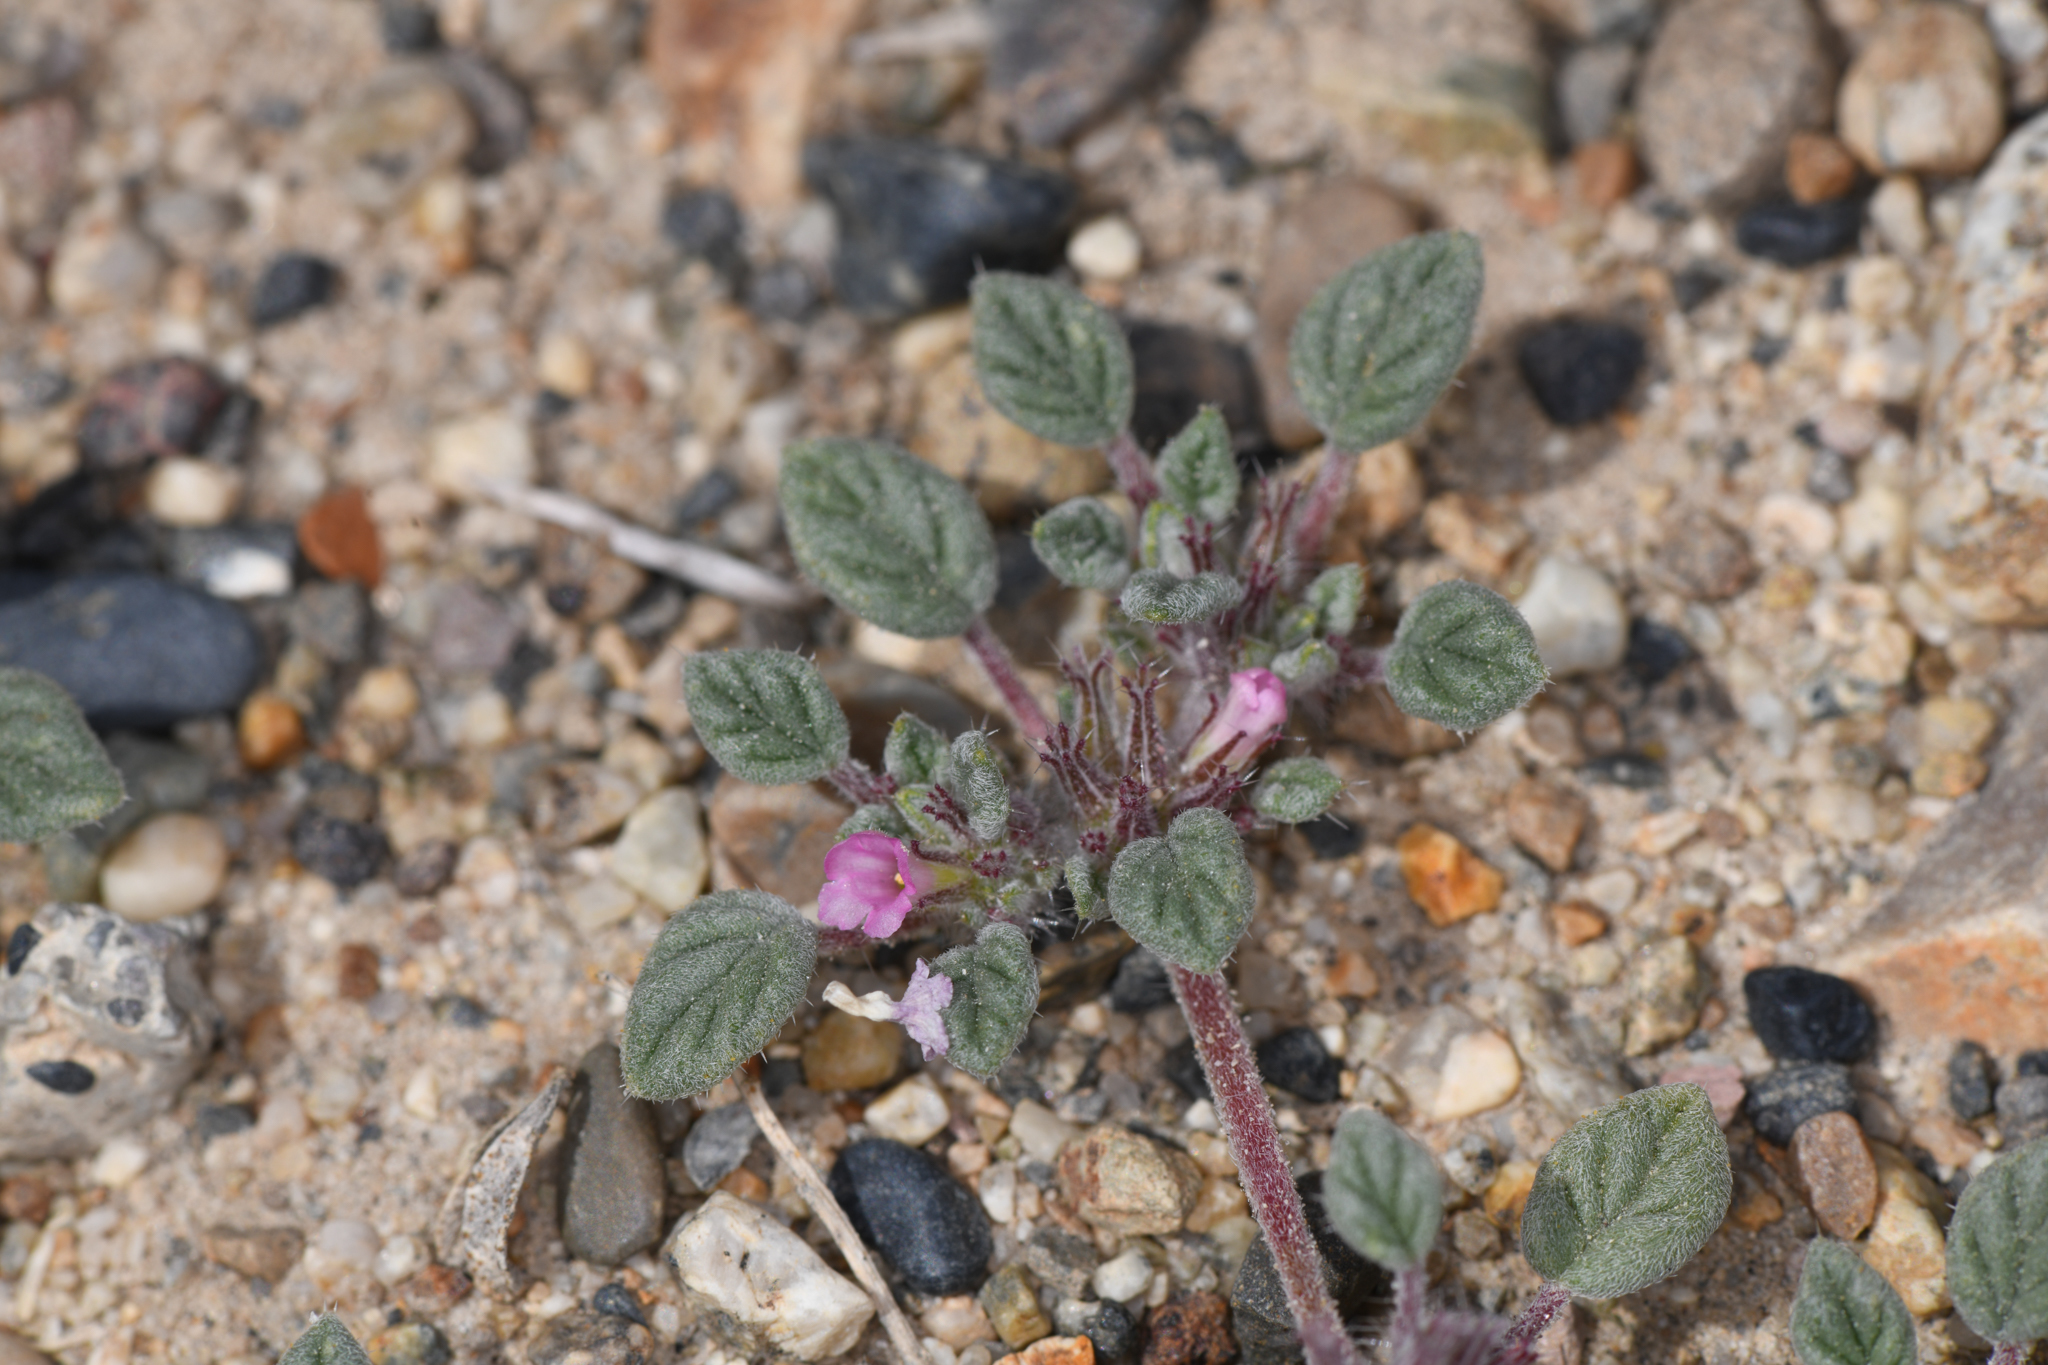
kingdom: Plantae
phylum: Tracheophyta
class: Magnoliopsida
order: Boraginales
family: Ehretiaceae
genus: Tiquilia
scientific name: Tiquilia nuttallii
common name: Rosette tiquilia
